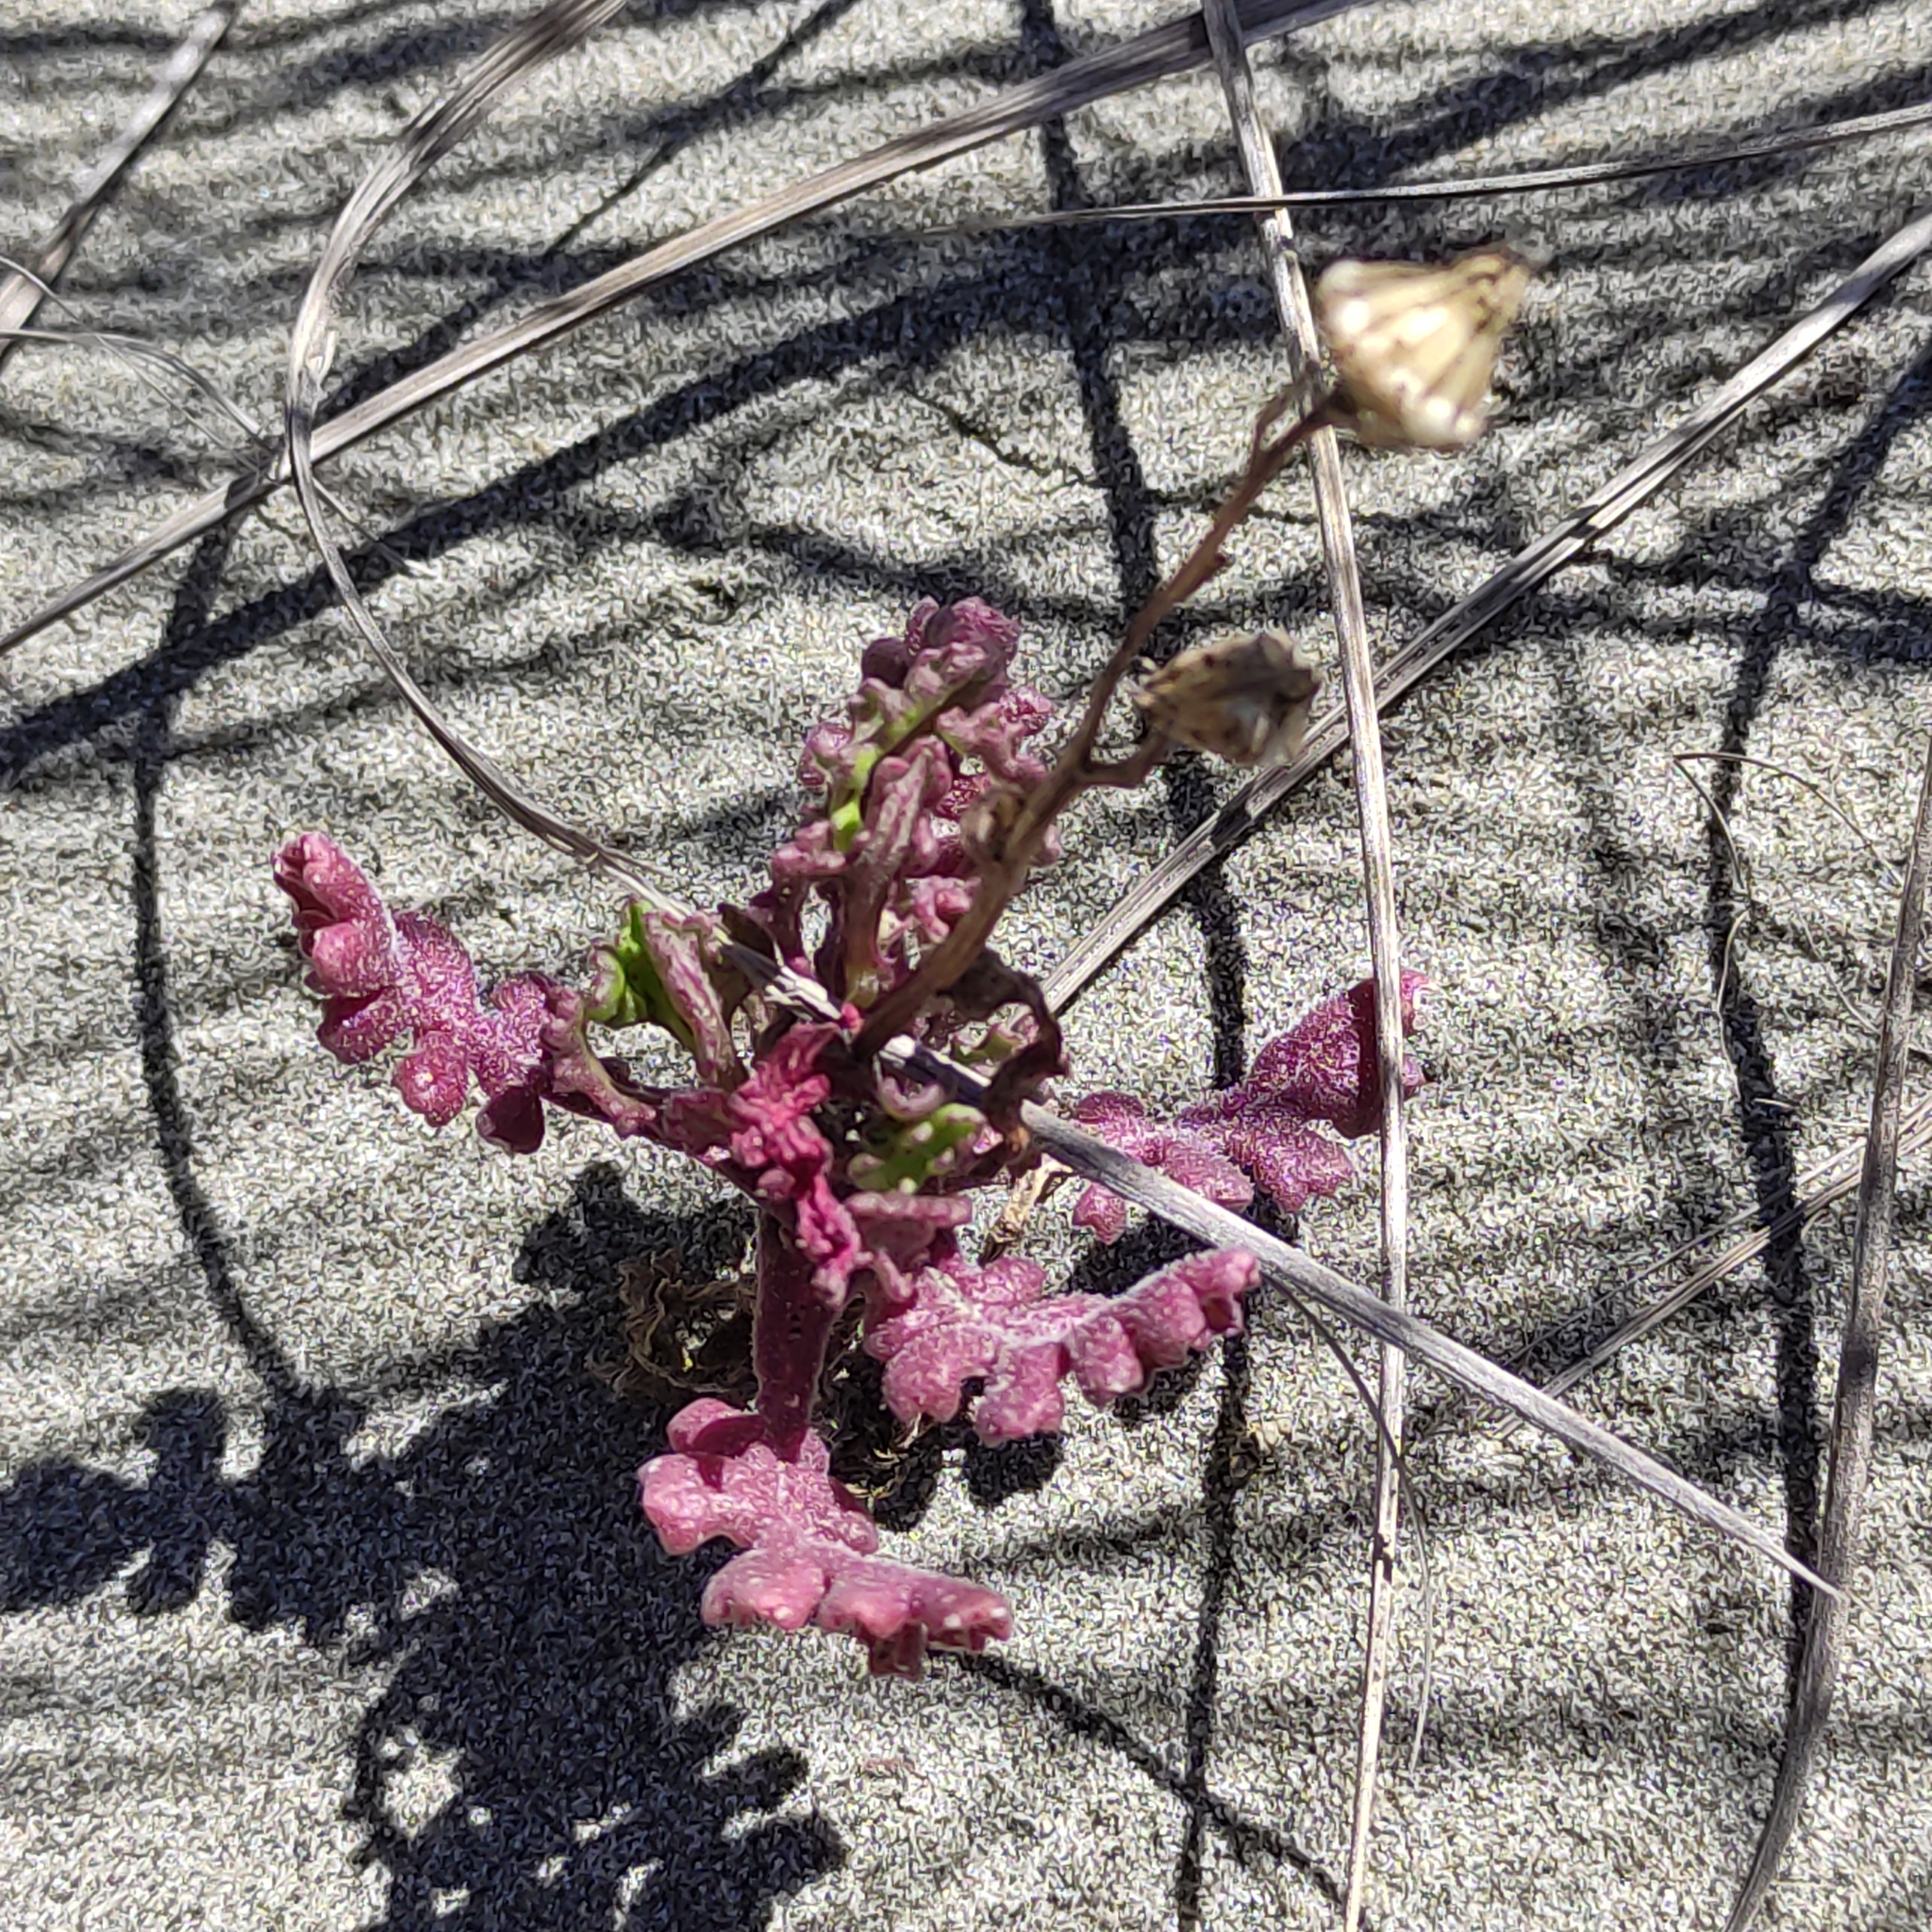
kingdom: Plantae
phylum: Tracheophyta
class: Magnoliopsida
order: Asterales
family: Asteraceae
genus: Senecio
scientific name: Senecio elegans
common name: Purple groundsel
